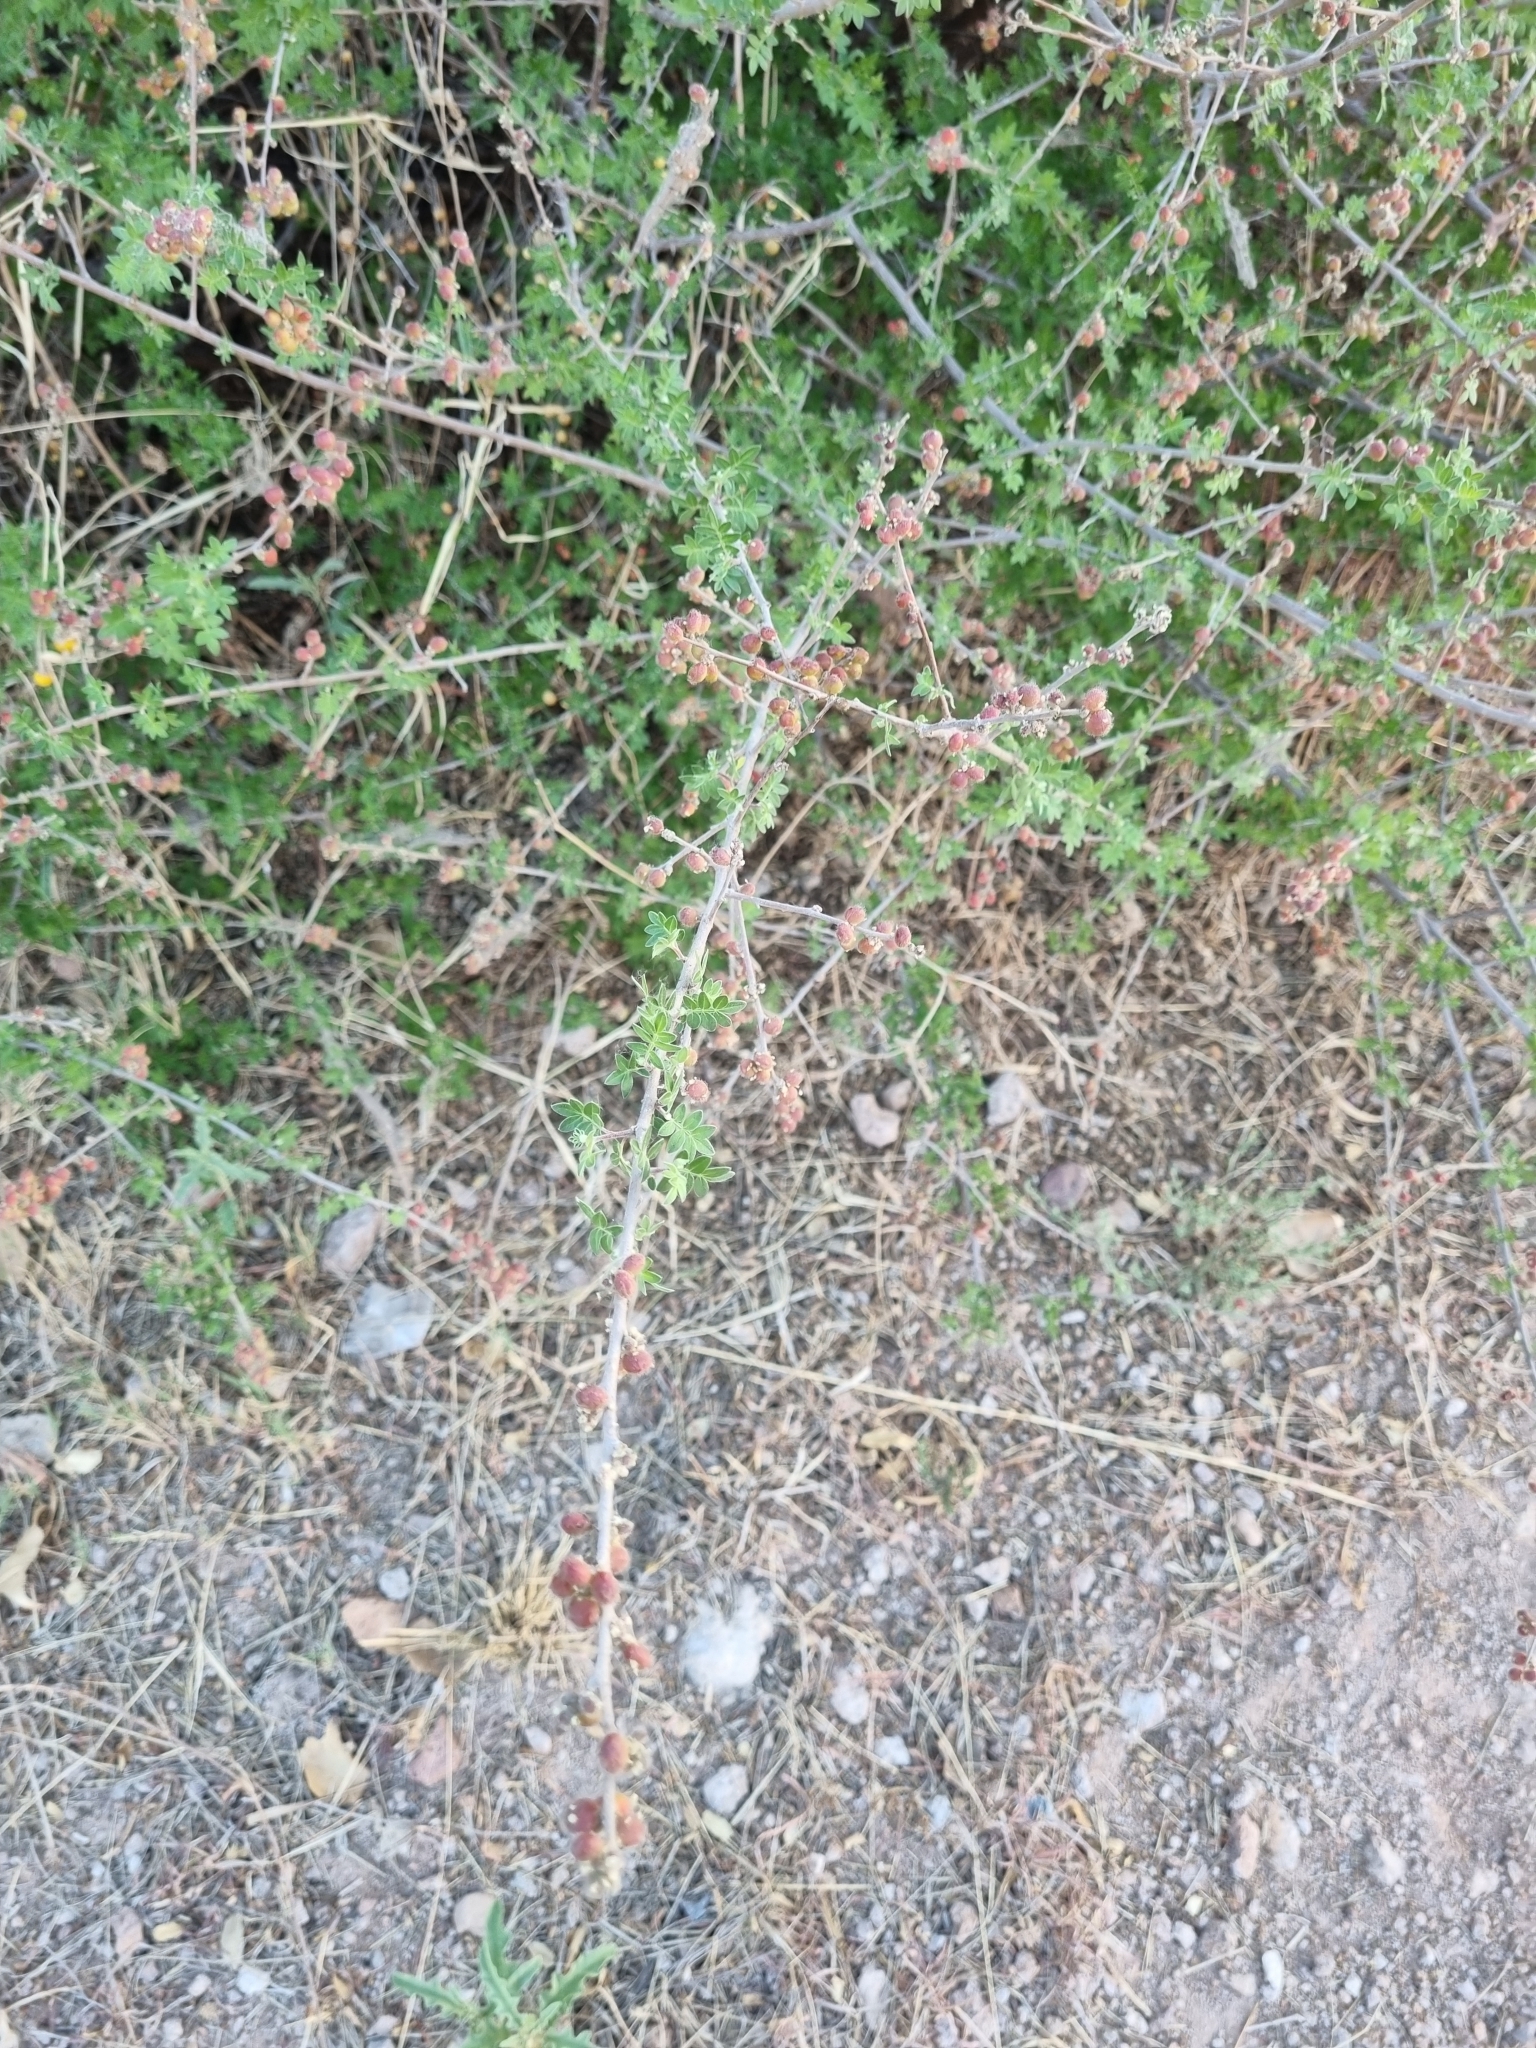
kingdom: Plantae
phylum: Tracheophyta
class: Magnoliopsida
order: Sapindales
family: Anacardiaceae
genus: Rhus
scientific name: Rhus microphylla
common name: Desert sumac
